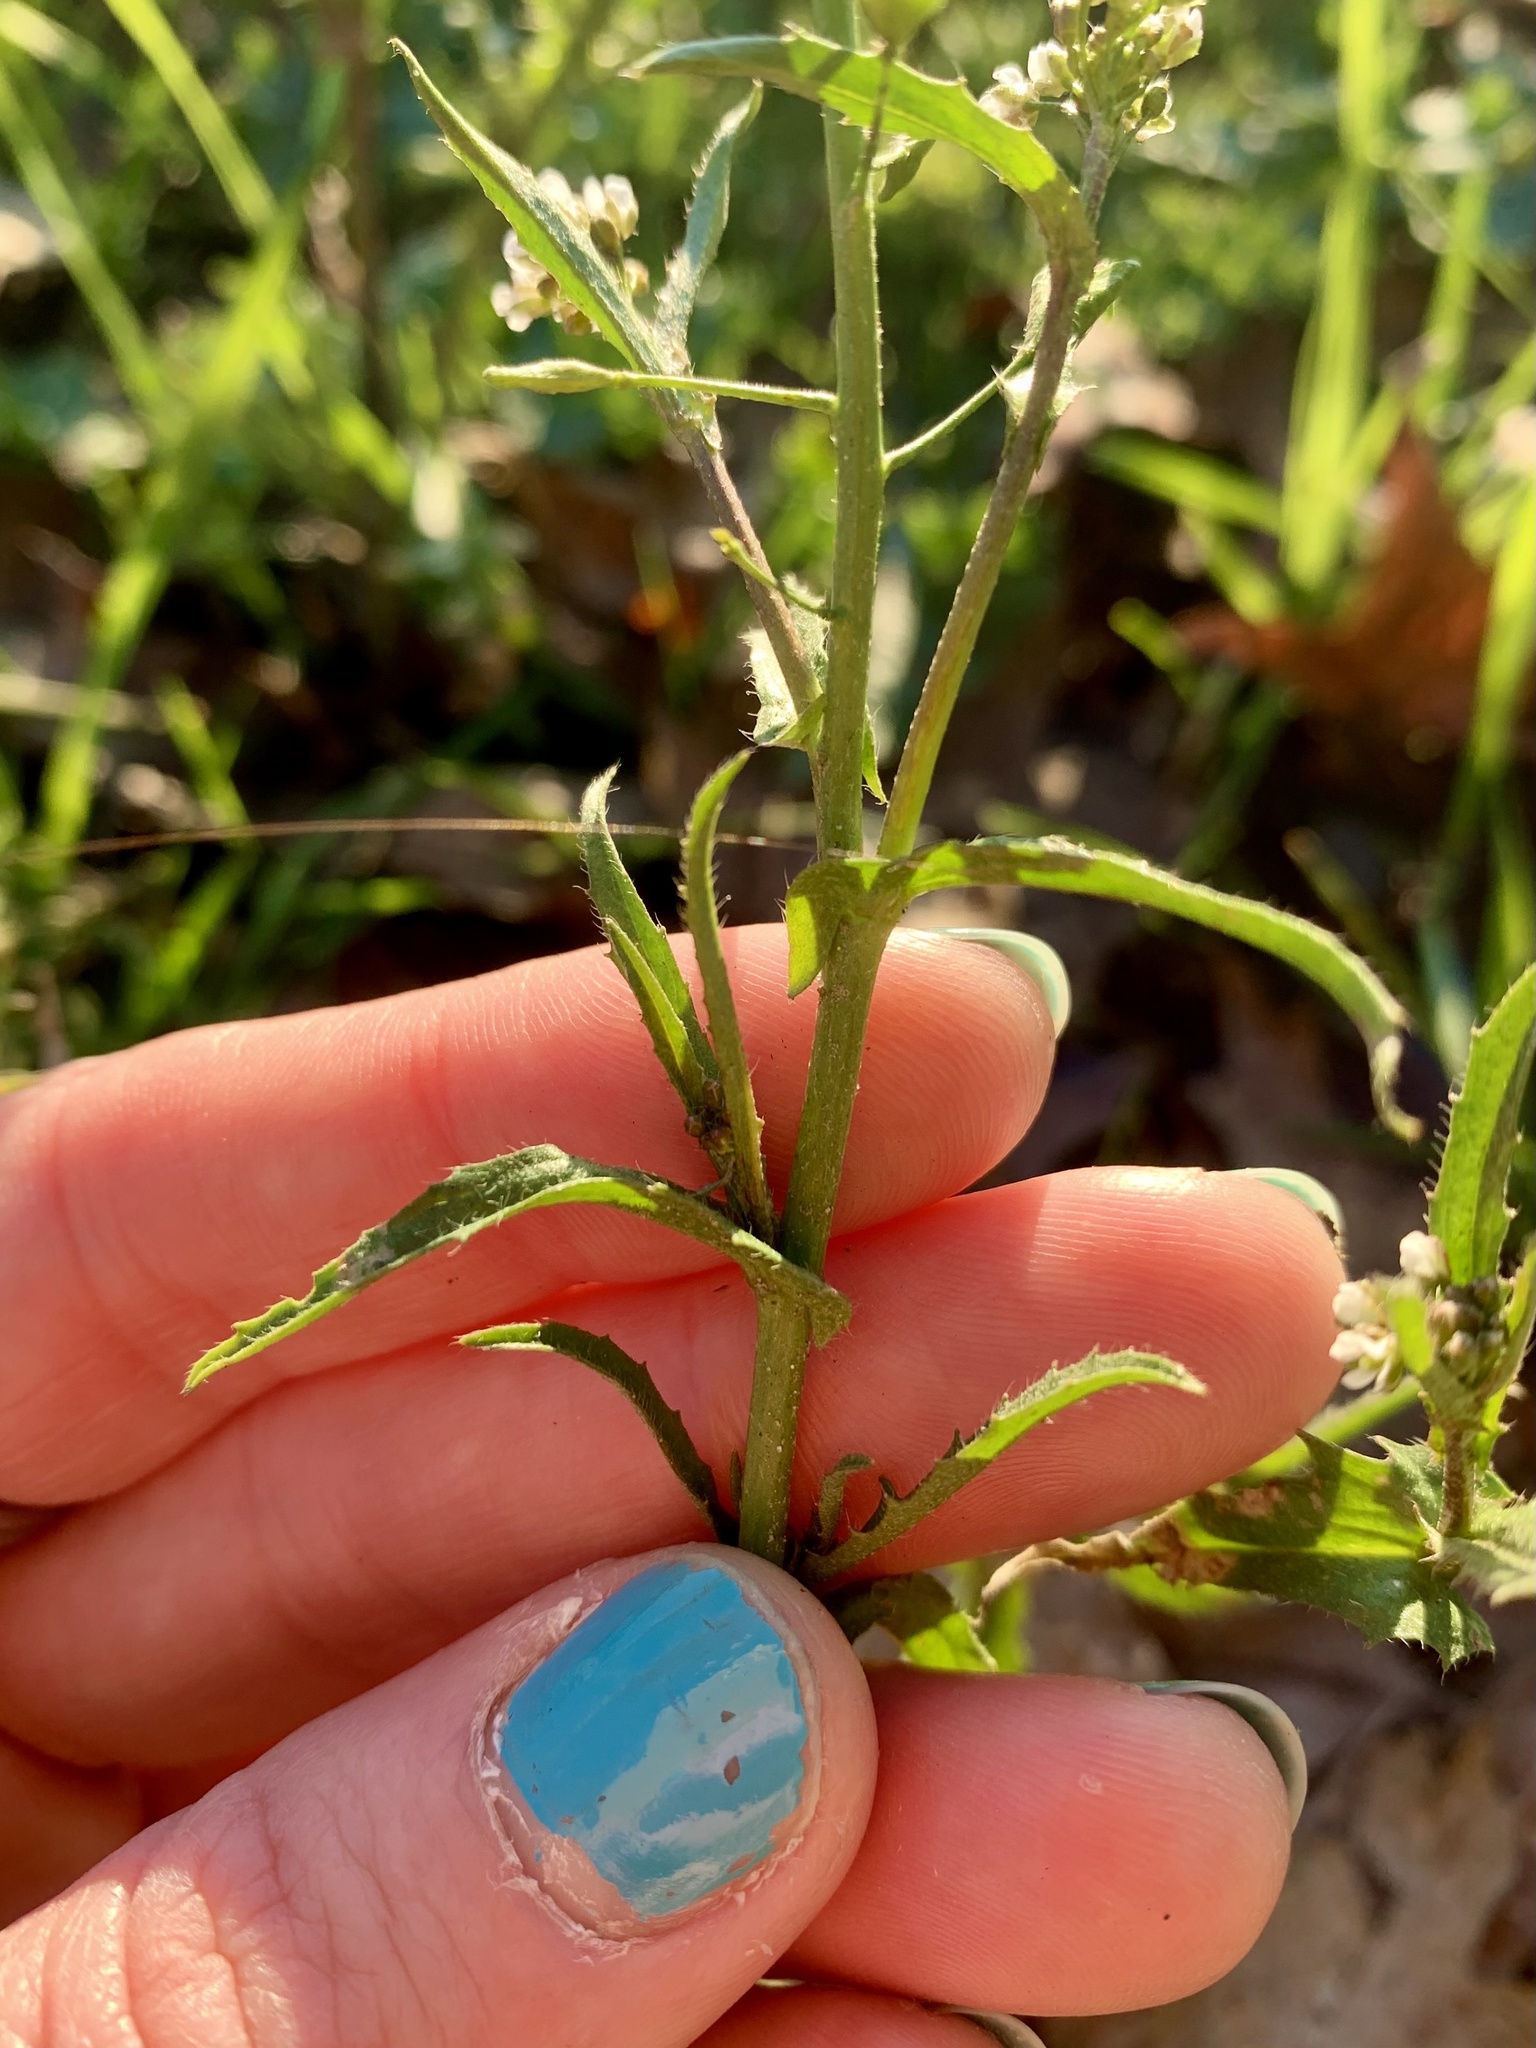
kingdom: Plantae
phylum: Tracheophyta
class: Magnoliopsida
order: Brassicales
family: Brassicaceae
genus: Capsella
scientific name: Capsella bursa-pastoris
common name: Shepherd's purse
